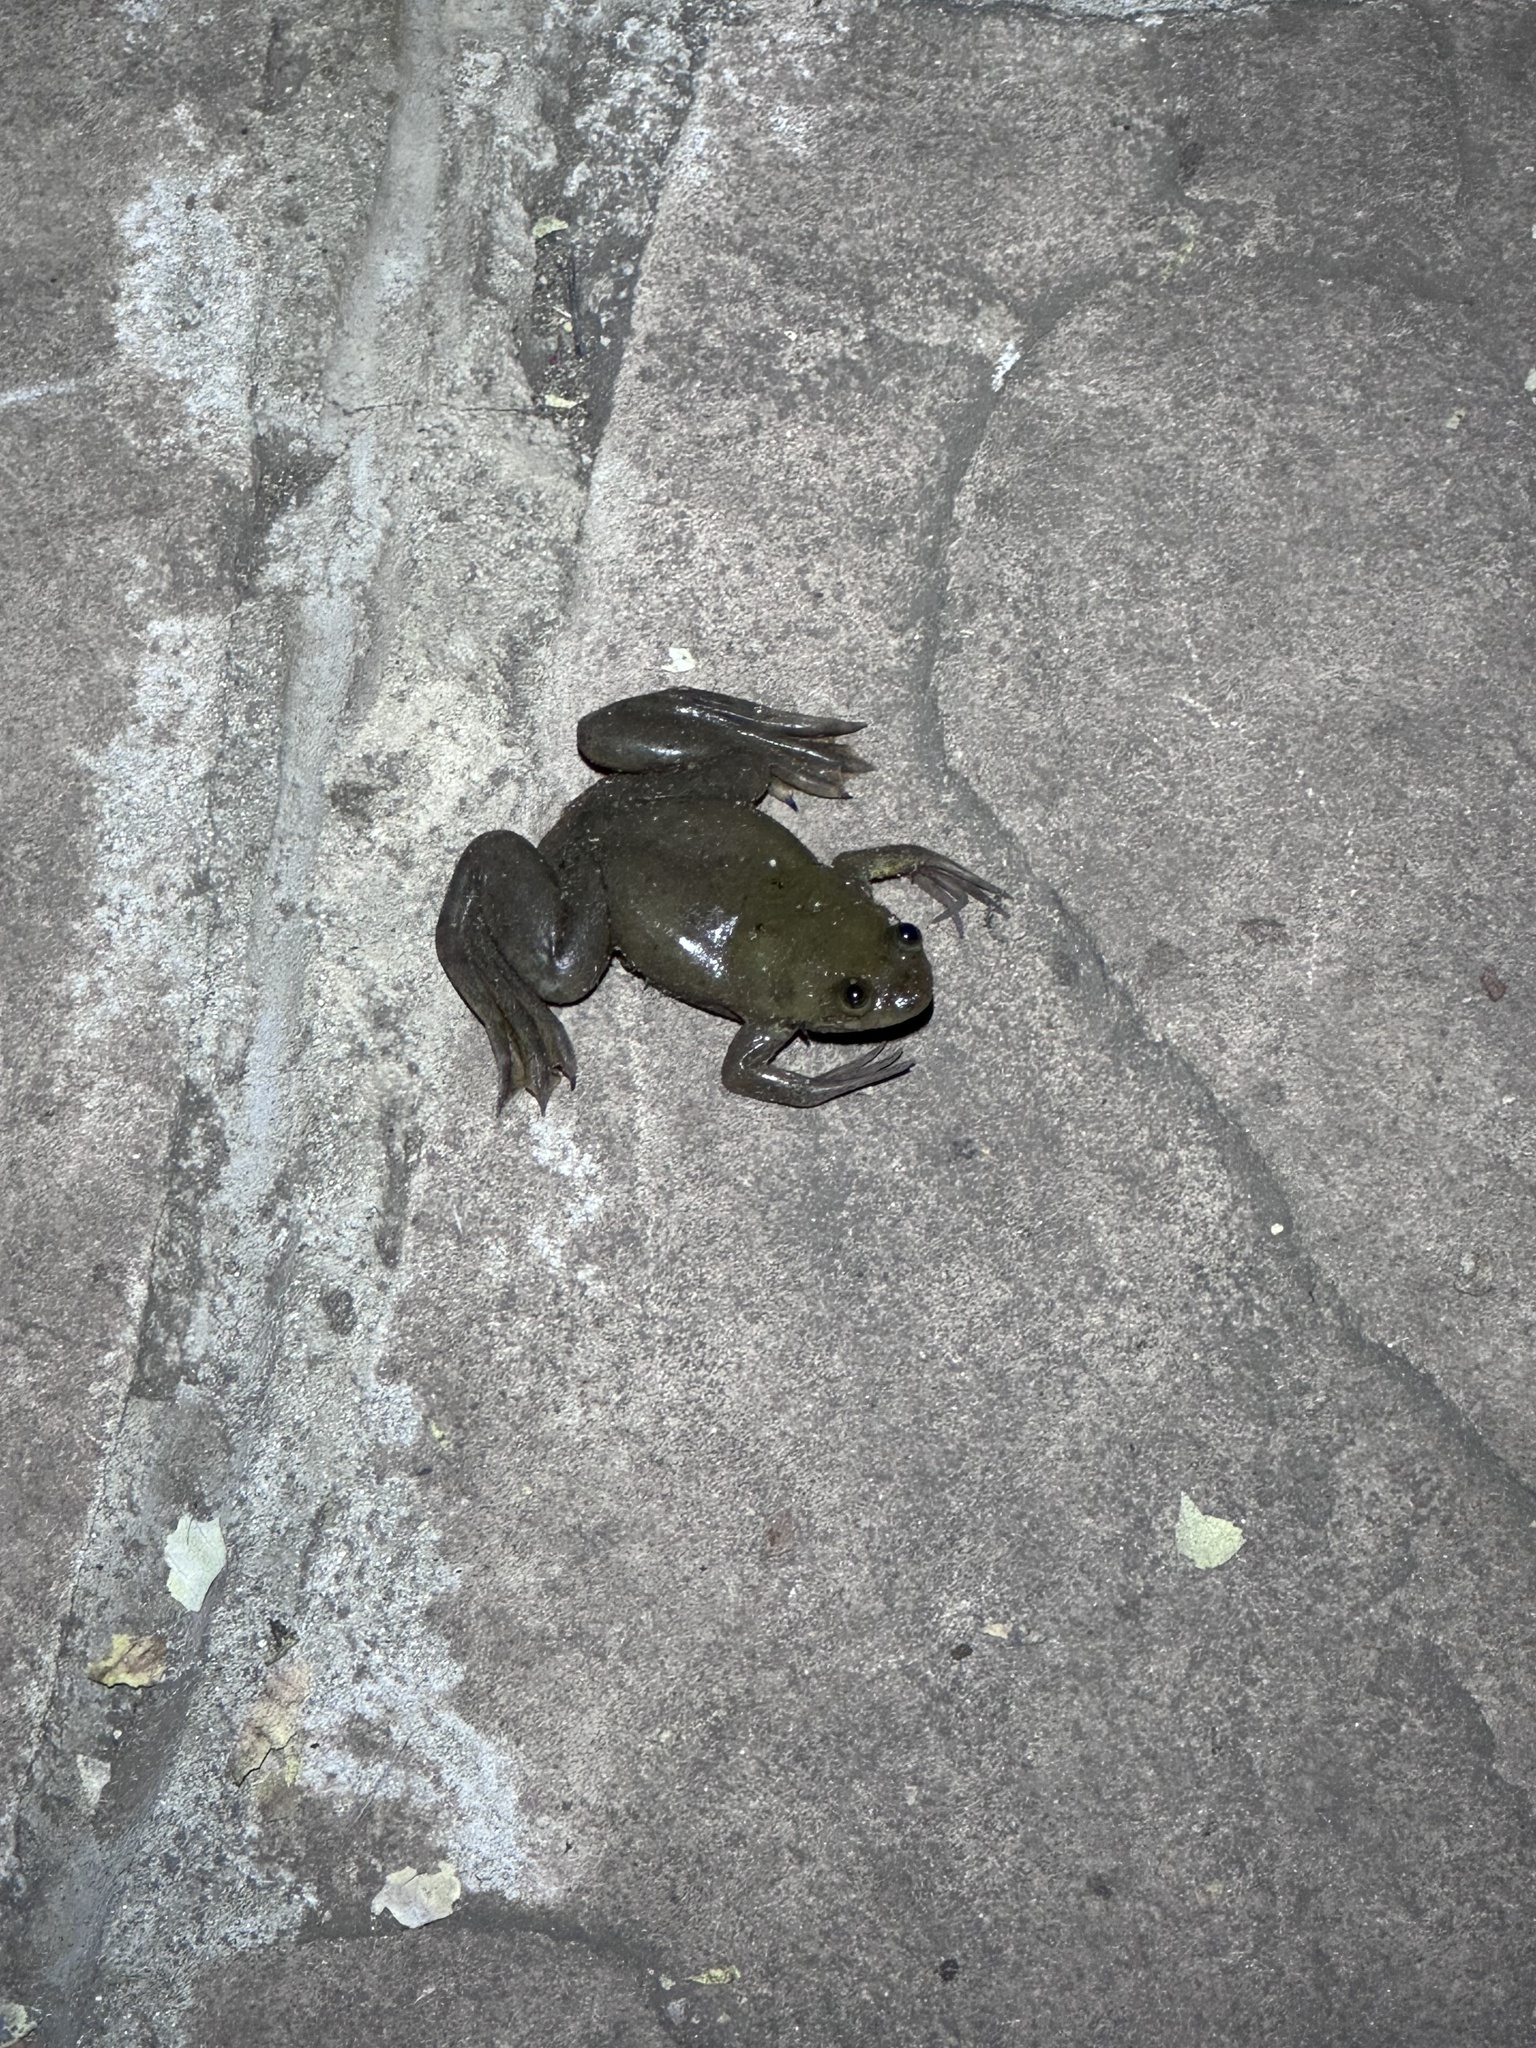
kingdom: Animalia
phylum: Chordata
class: Amphibia
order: Anura
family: Pipidae
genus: Xenopus
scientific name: Xenopus muelleri
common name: Muller's clawed frog
